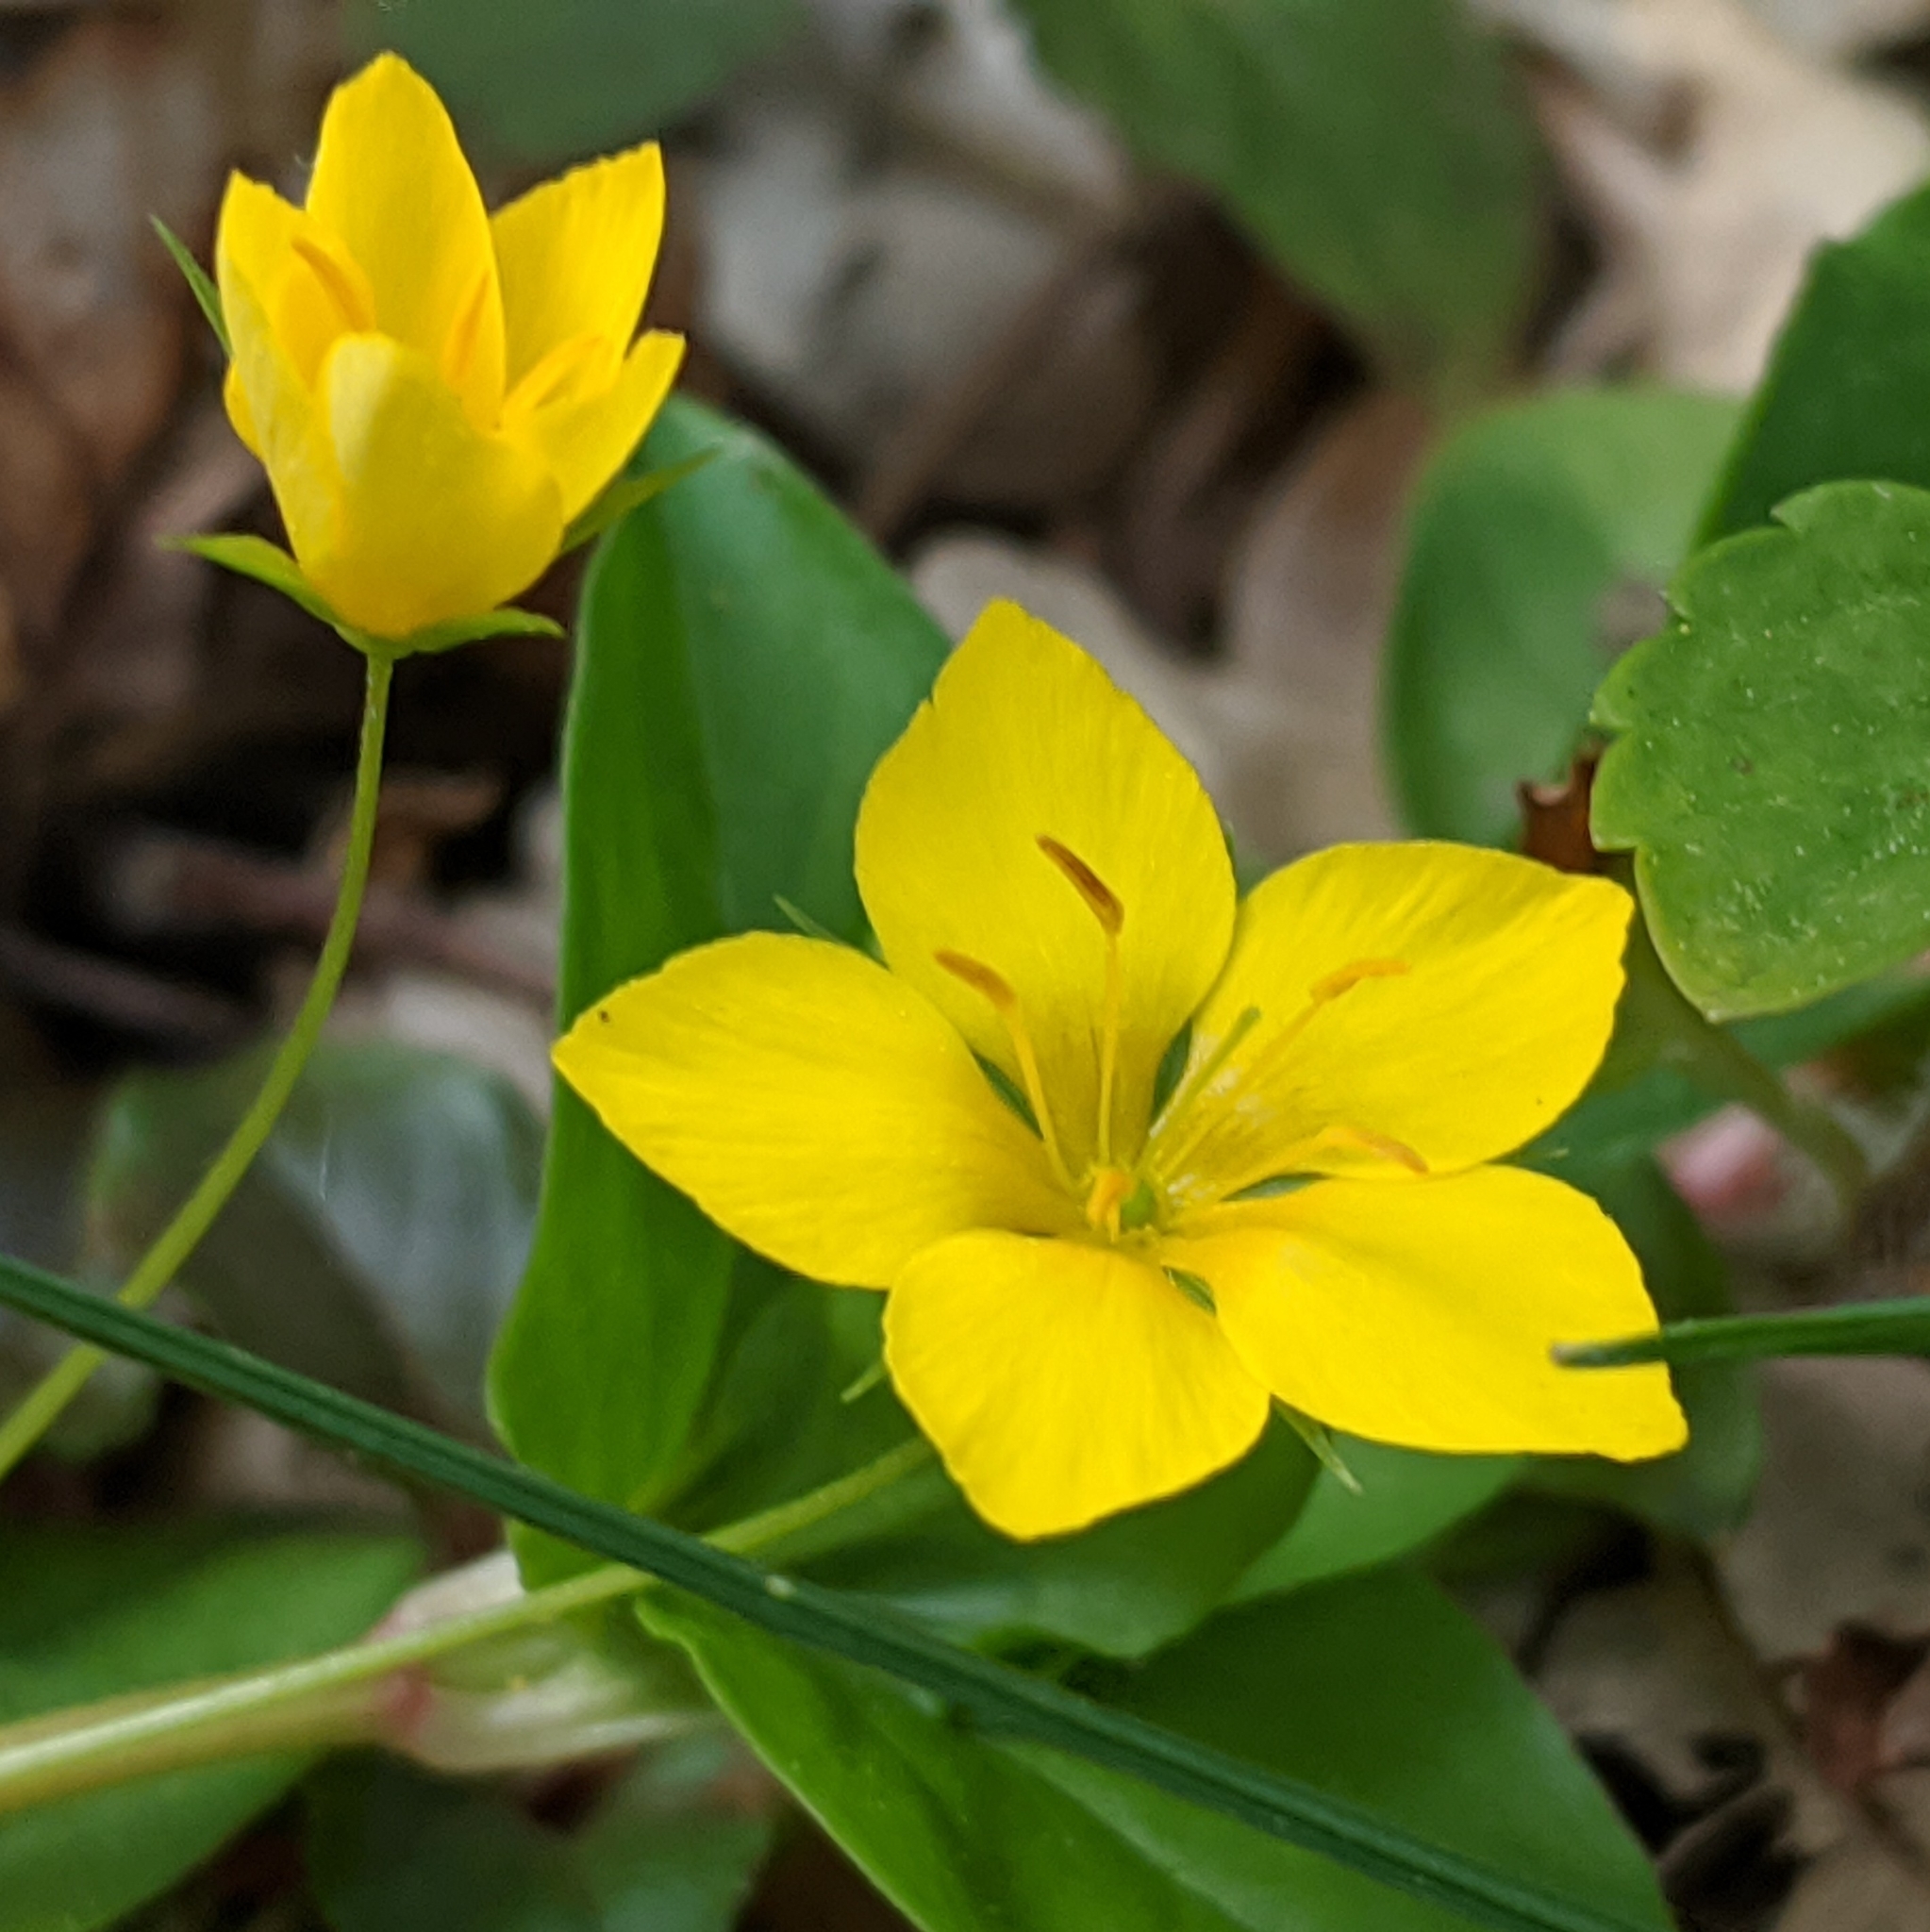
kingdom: Plantae
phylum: Tracheophyta
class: Magnoliopsida
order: Ericales
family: Primulaceae
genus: Lysimachia
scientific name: Lysimachia nemorum
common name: Yellow pimpernel
